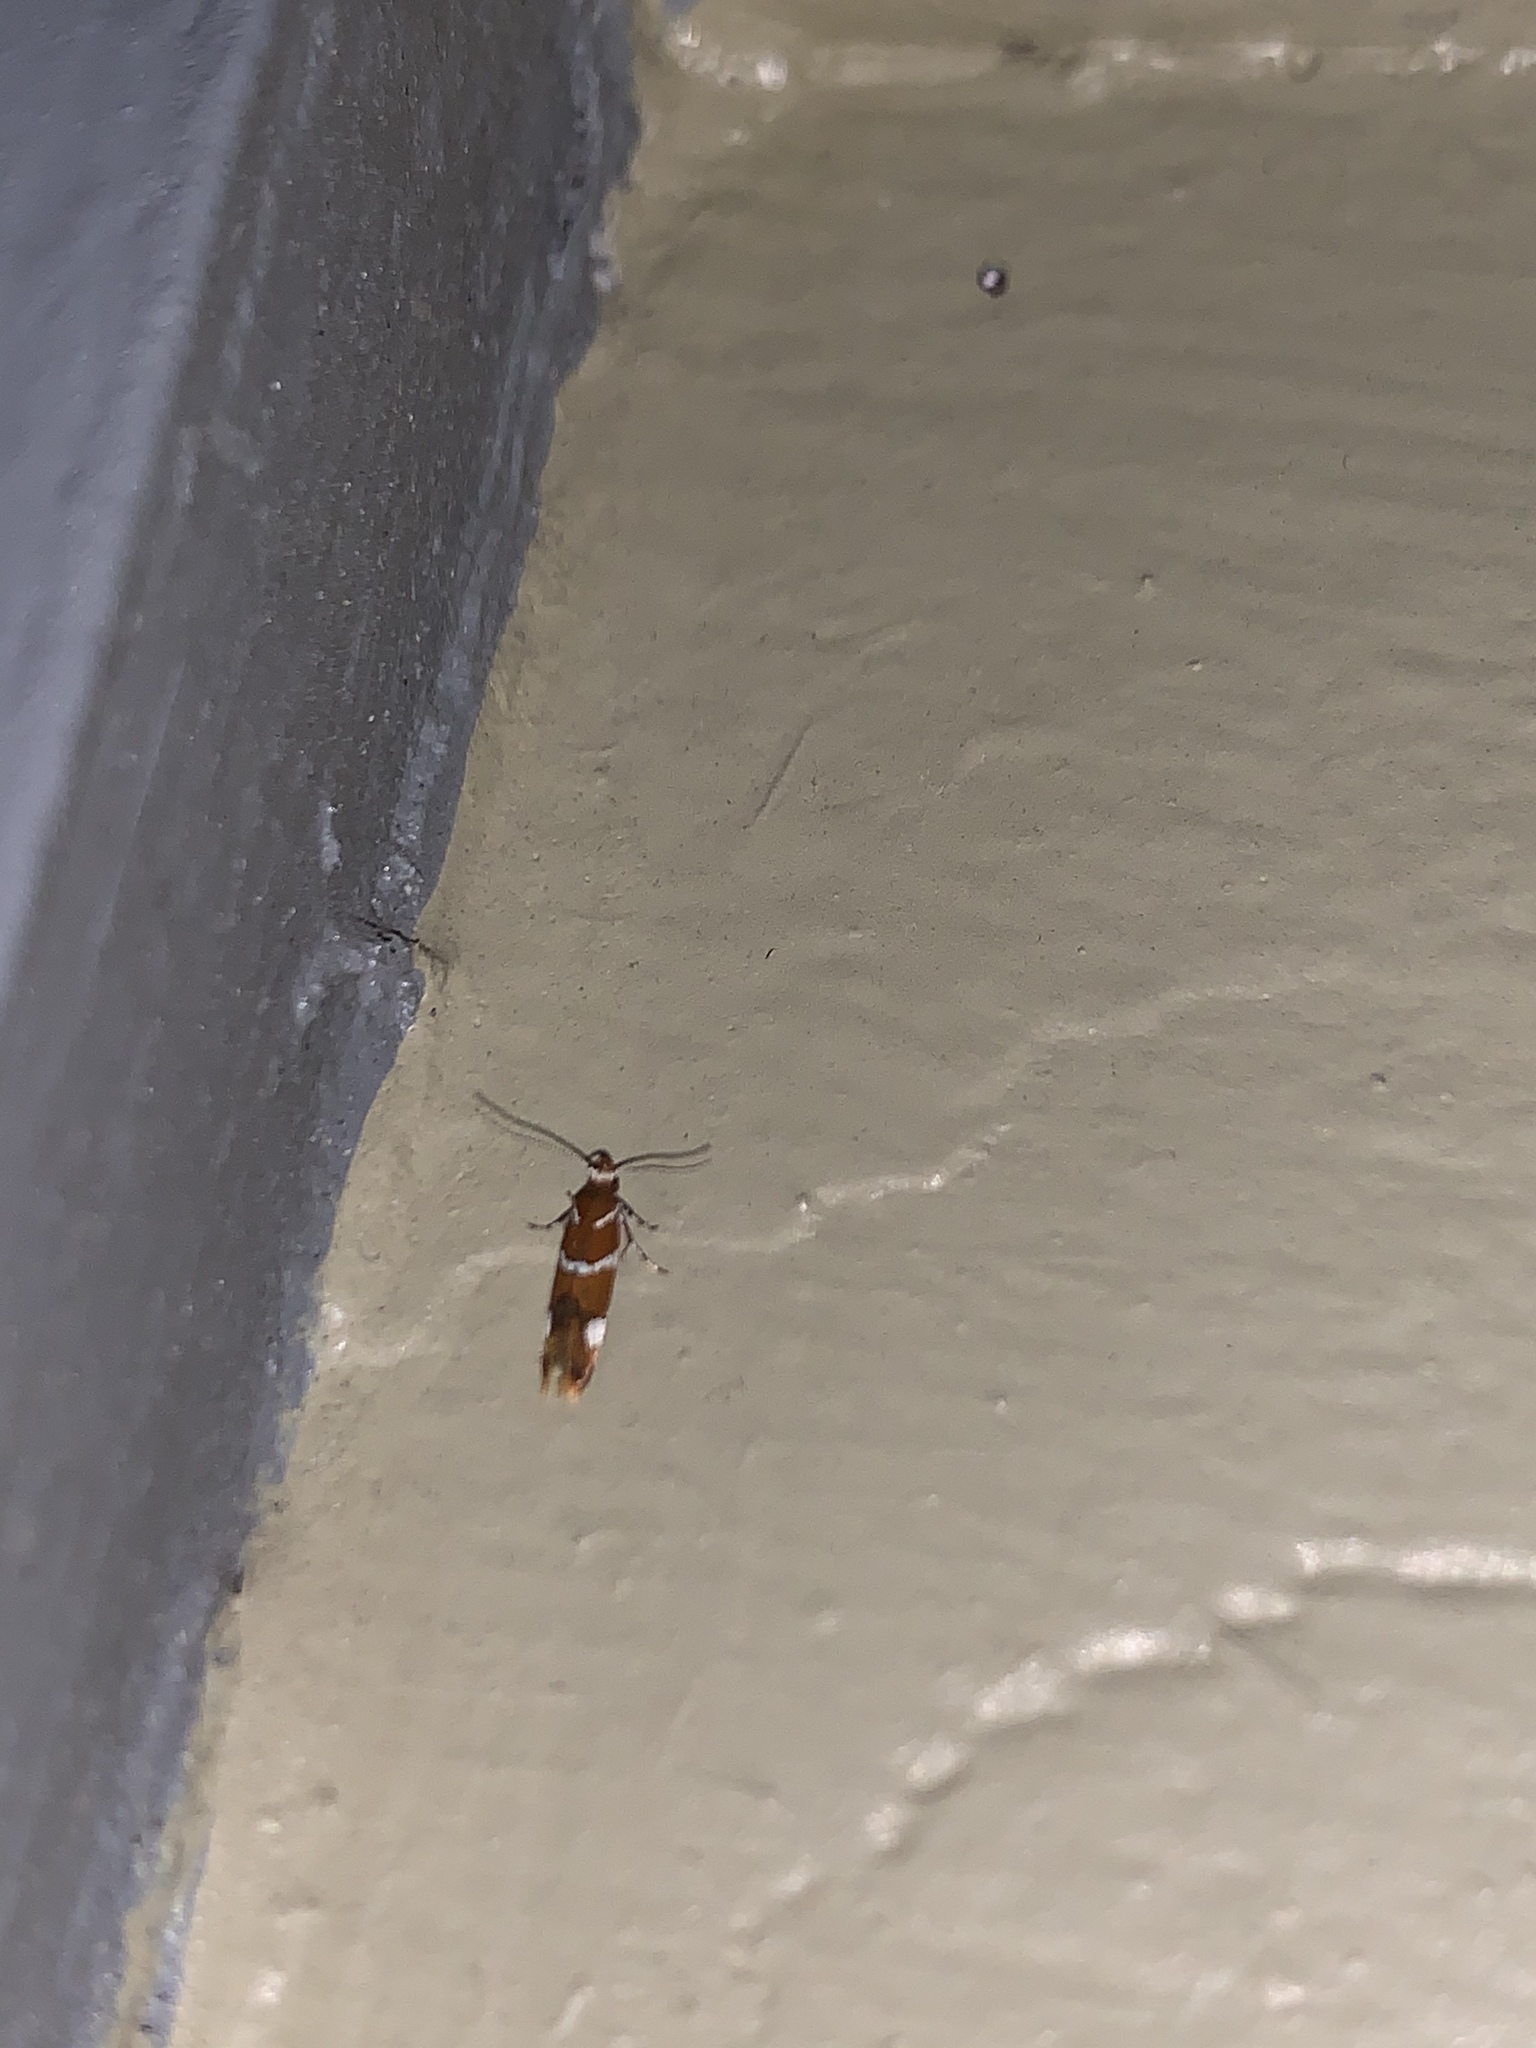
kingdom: Animalia
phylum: Arthropoda
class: Insecta
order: Lepidoptera
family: Oecophoridae
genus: Promalactis
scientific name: Promalactis suzukiella
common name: Moth
